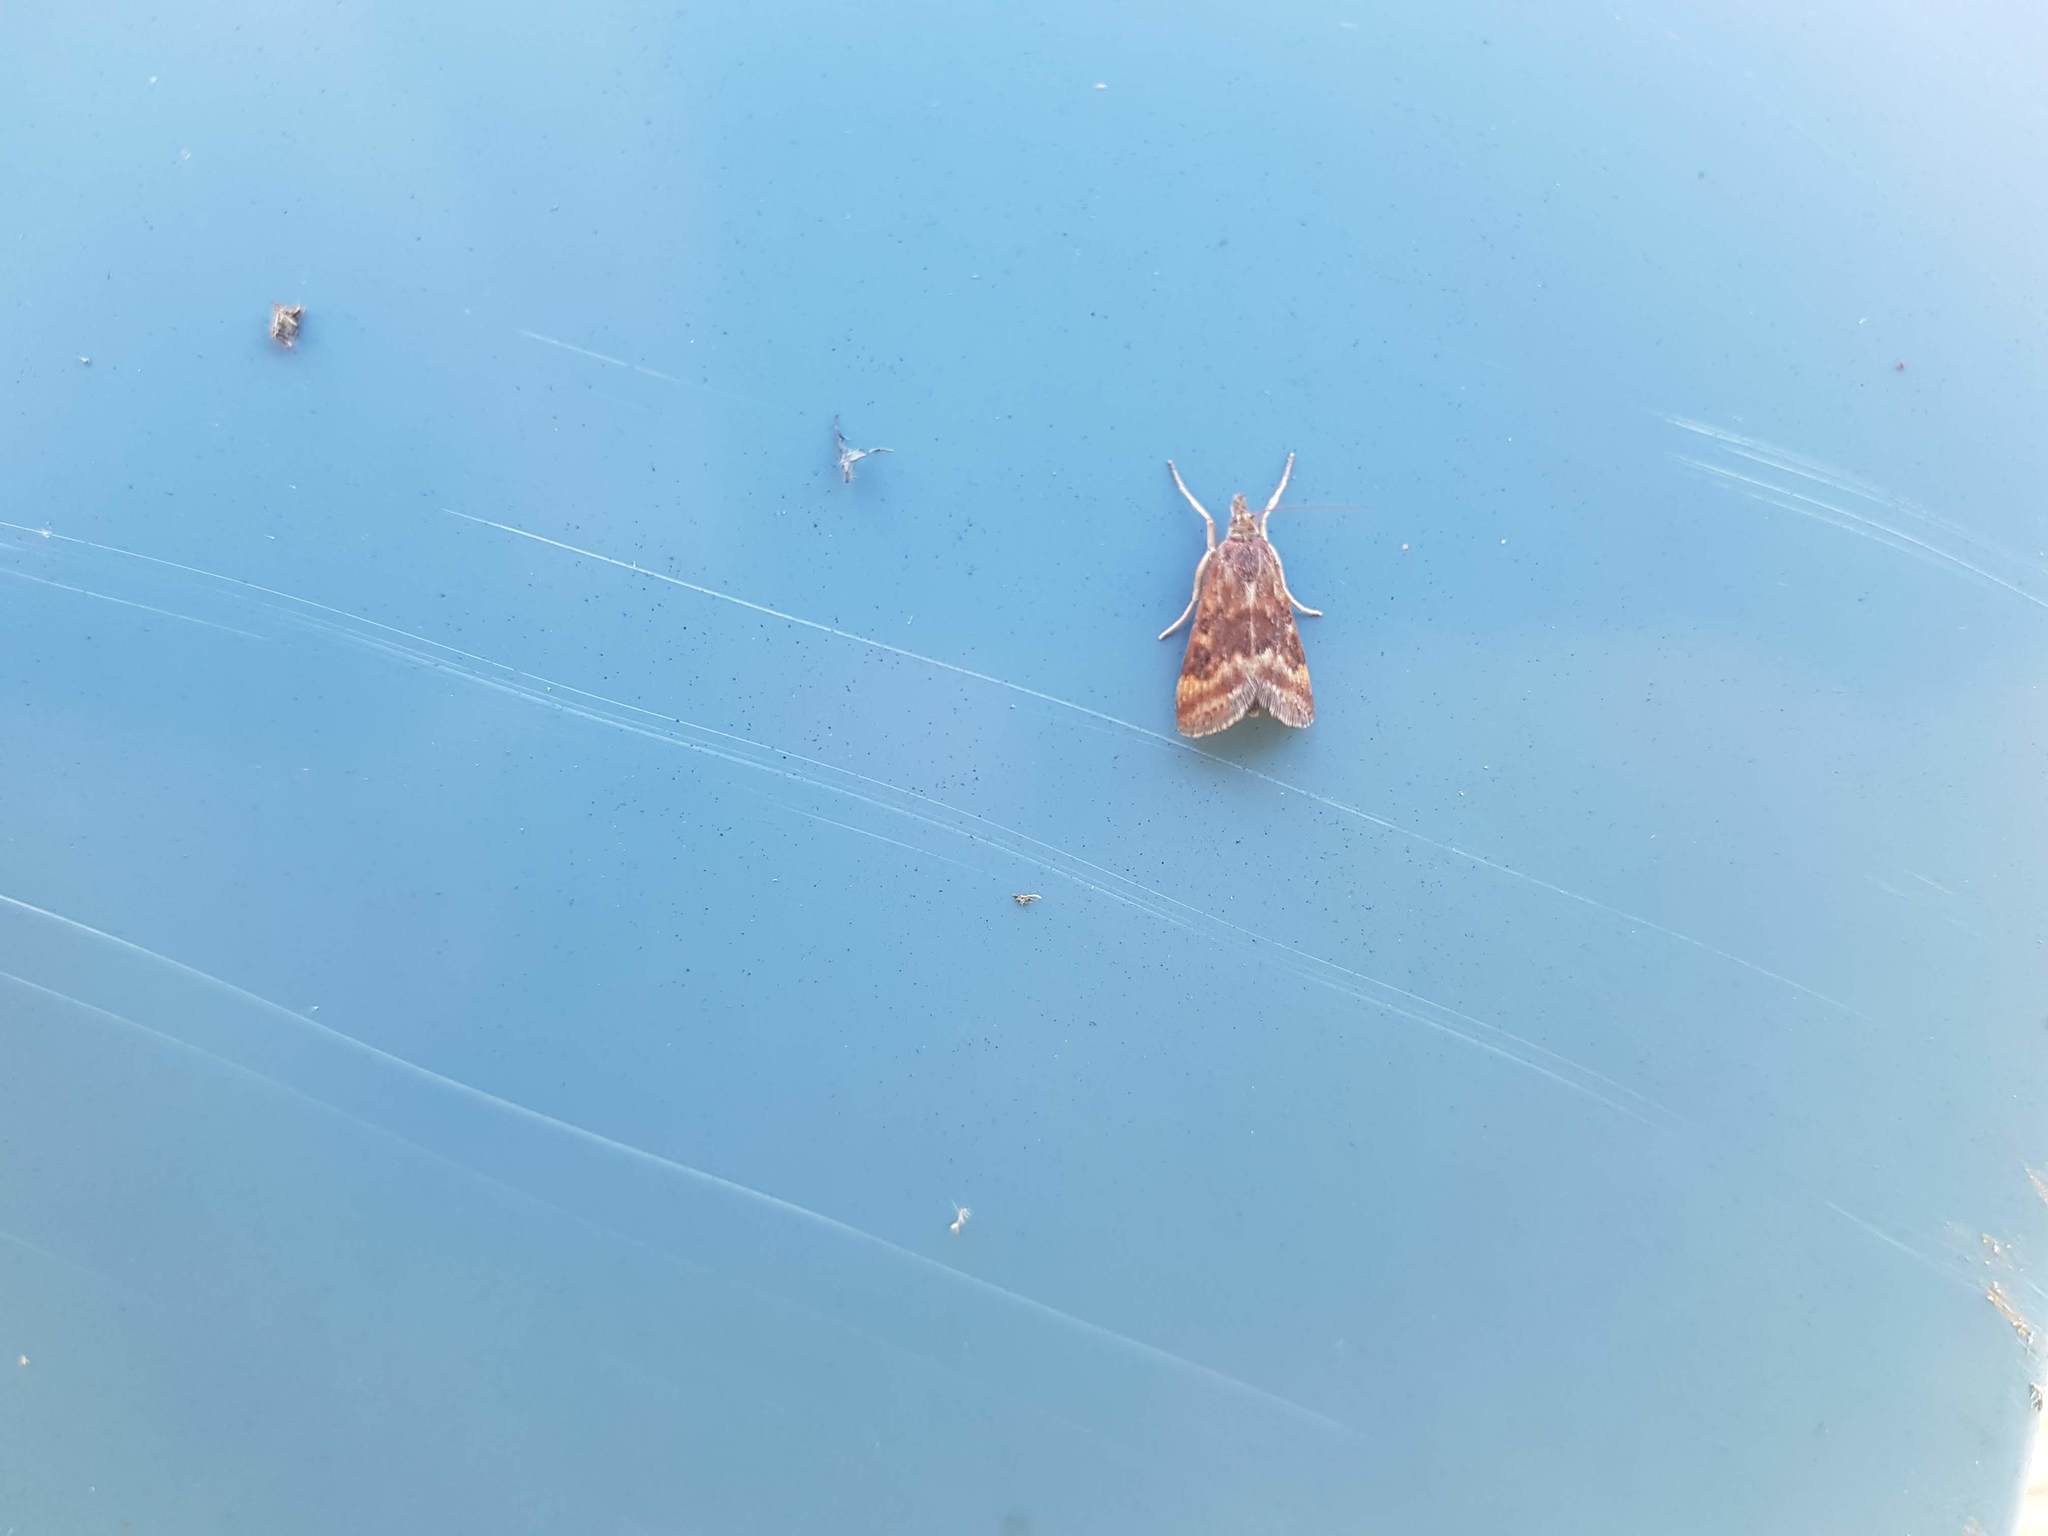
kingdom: Animalia
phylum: Arthropoda
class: Insecta
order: Lepidoptera
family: Crambidae
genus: Pyrausta
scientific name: Pyrausta despicata
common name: Straw-barred pearl
